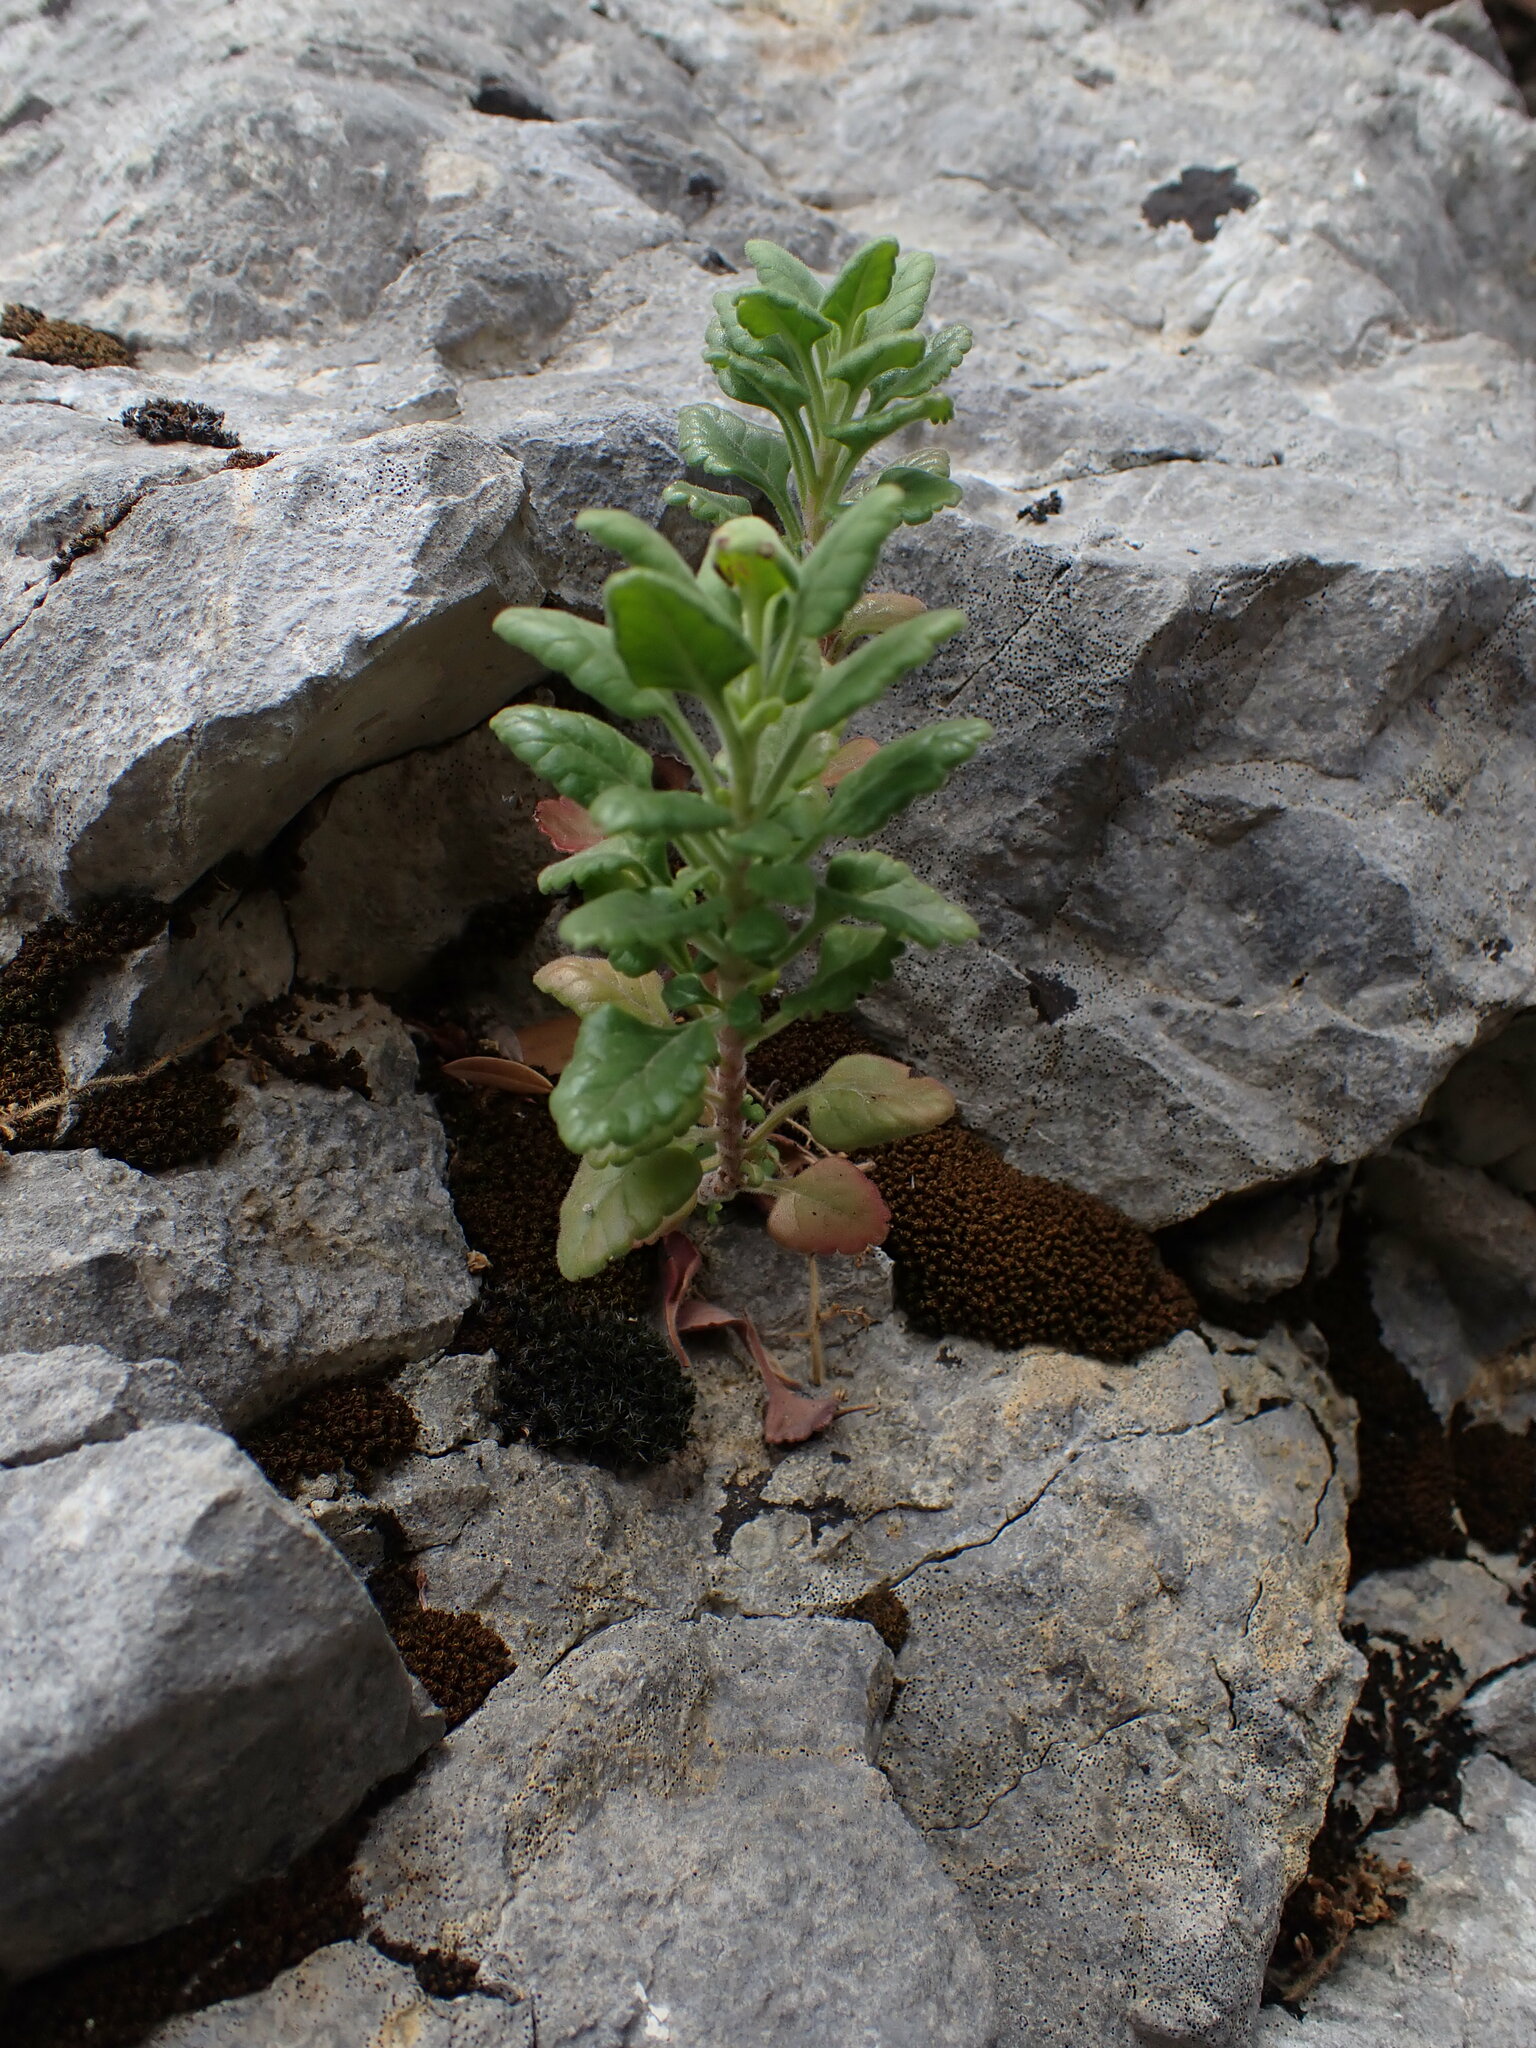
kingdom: Plantae
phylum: Tracheophyta
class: Magnoliopsida
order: Lamiales
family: Lamiaceae
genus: Teucrium
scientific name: Teucrium flavum
